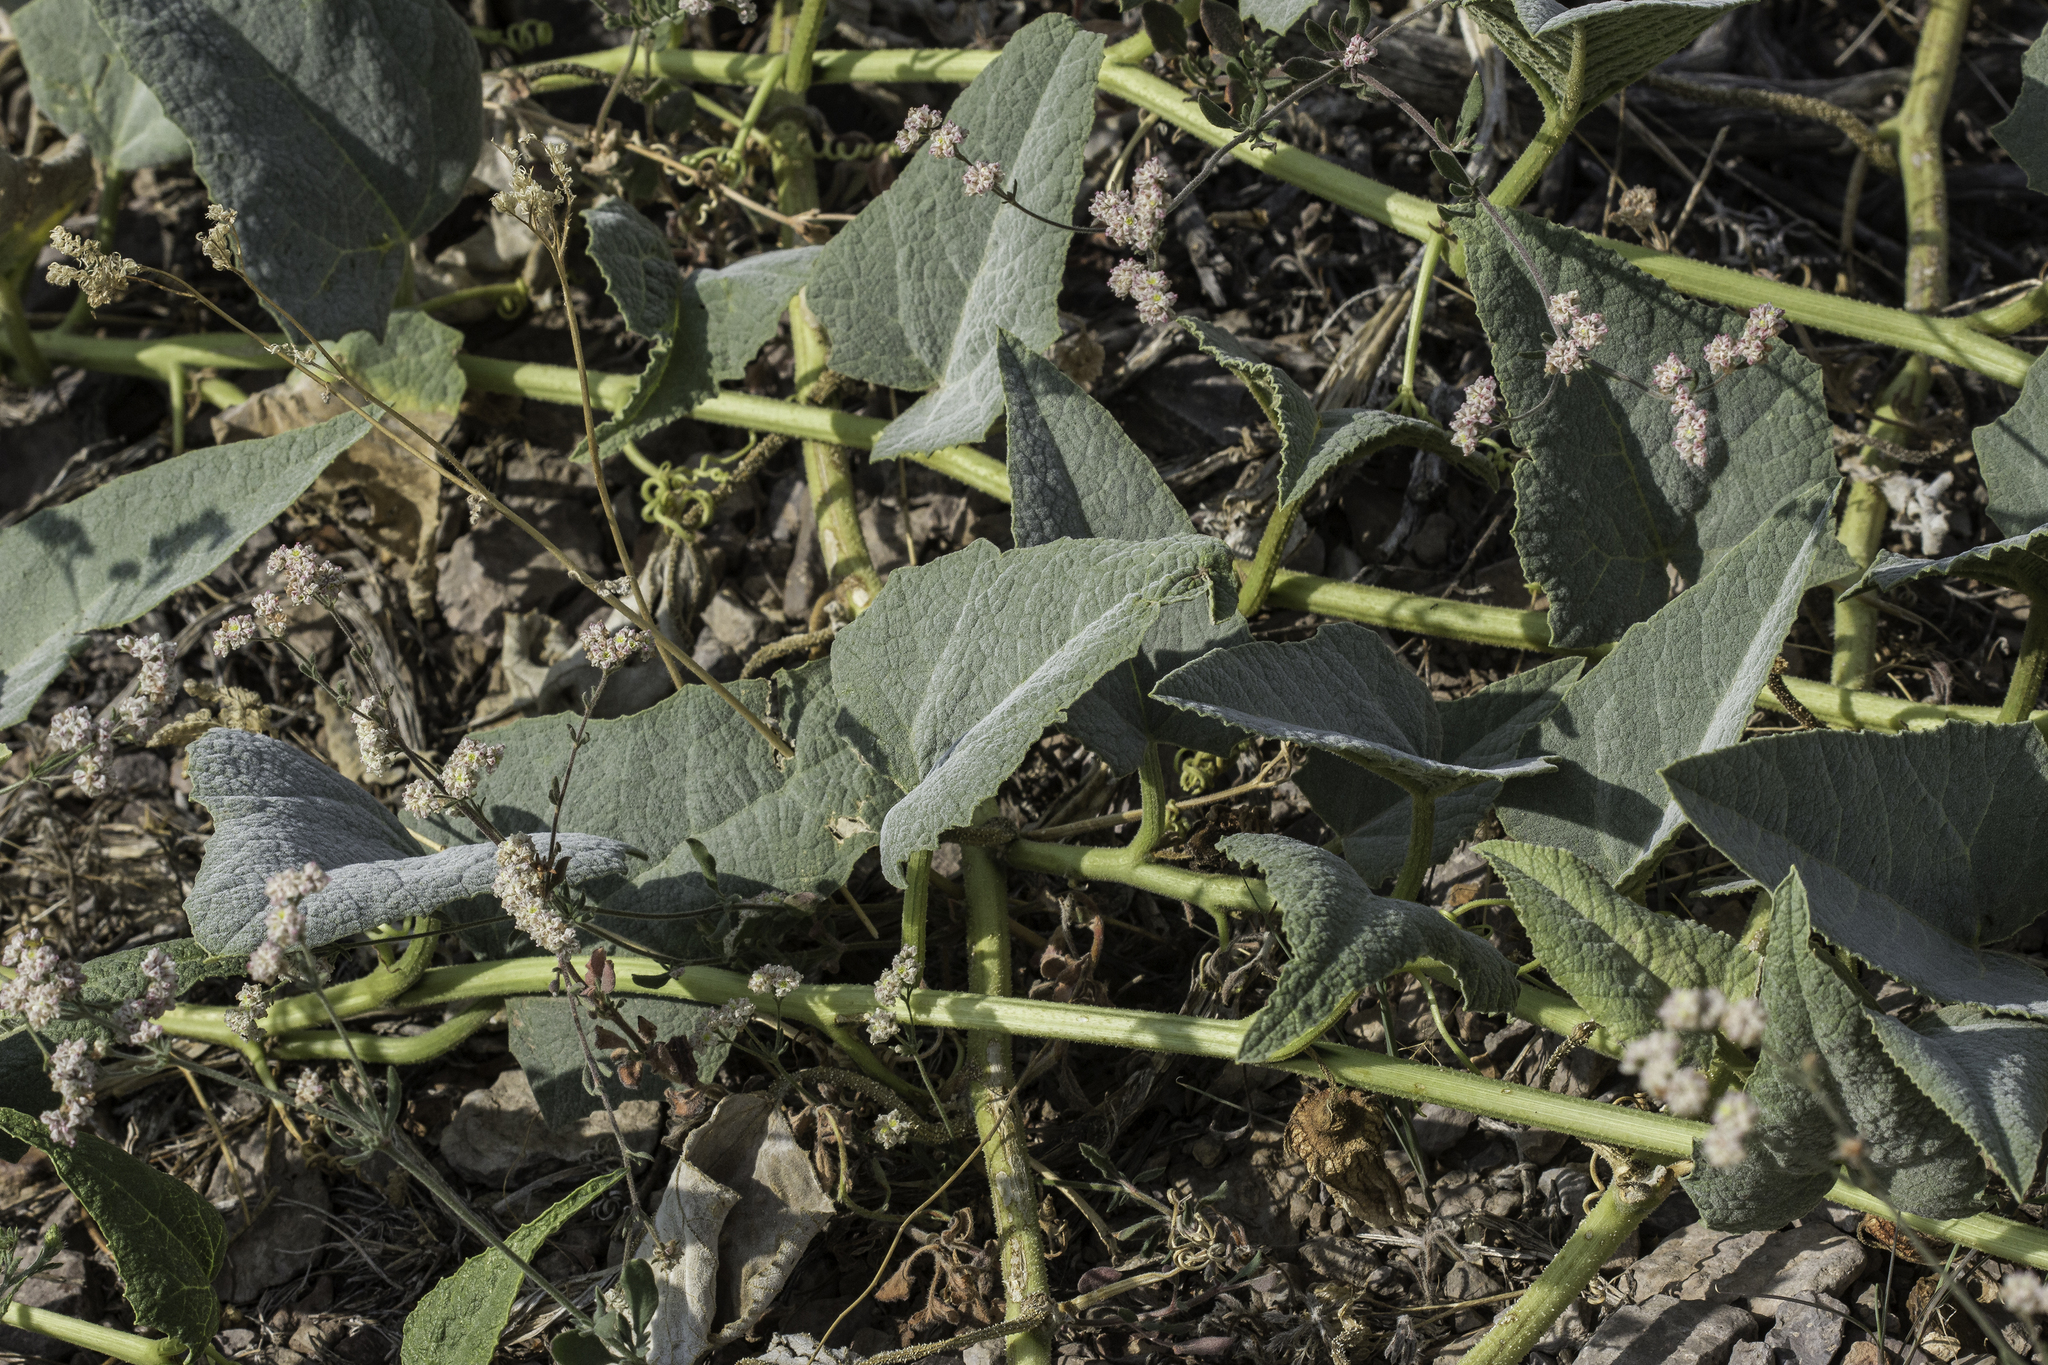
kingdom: Plantae
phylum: Tracheophyta
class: Magnoliopsida
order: Cucurbitales
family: Cucurbitaceae
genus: Cucurbita
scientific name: Cucurbita foetidissima
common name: Buffalo gourd
